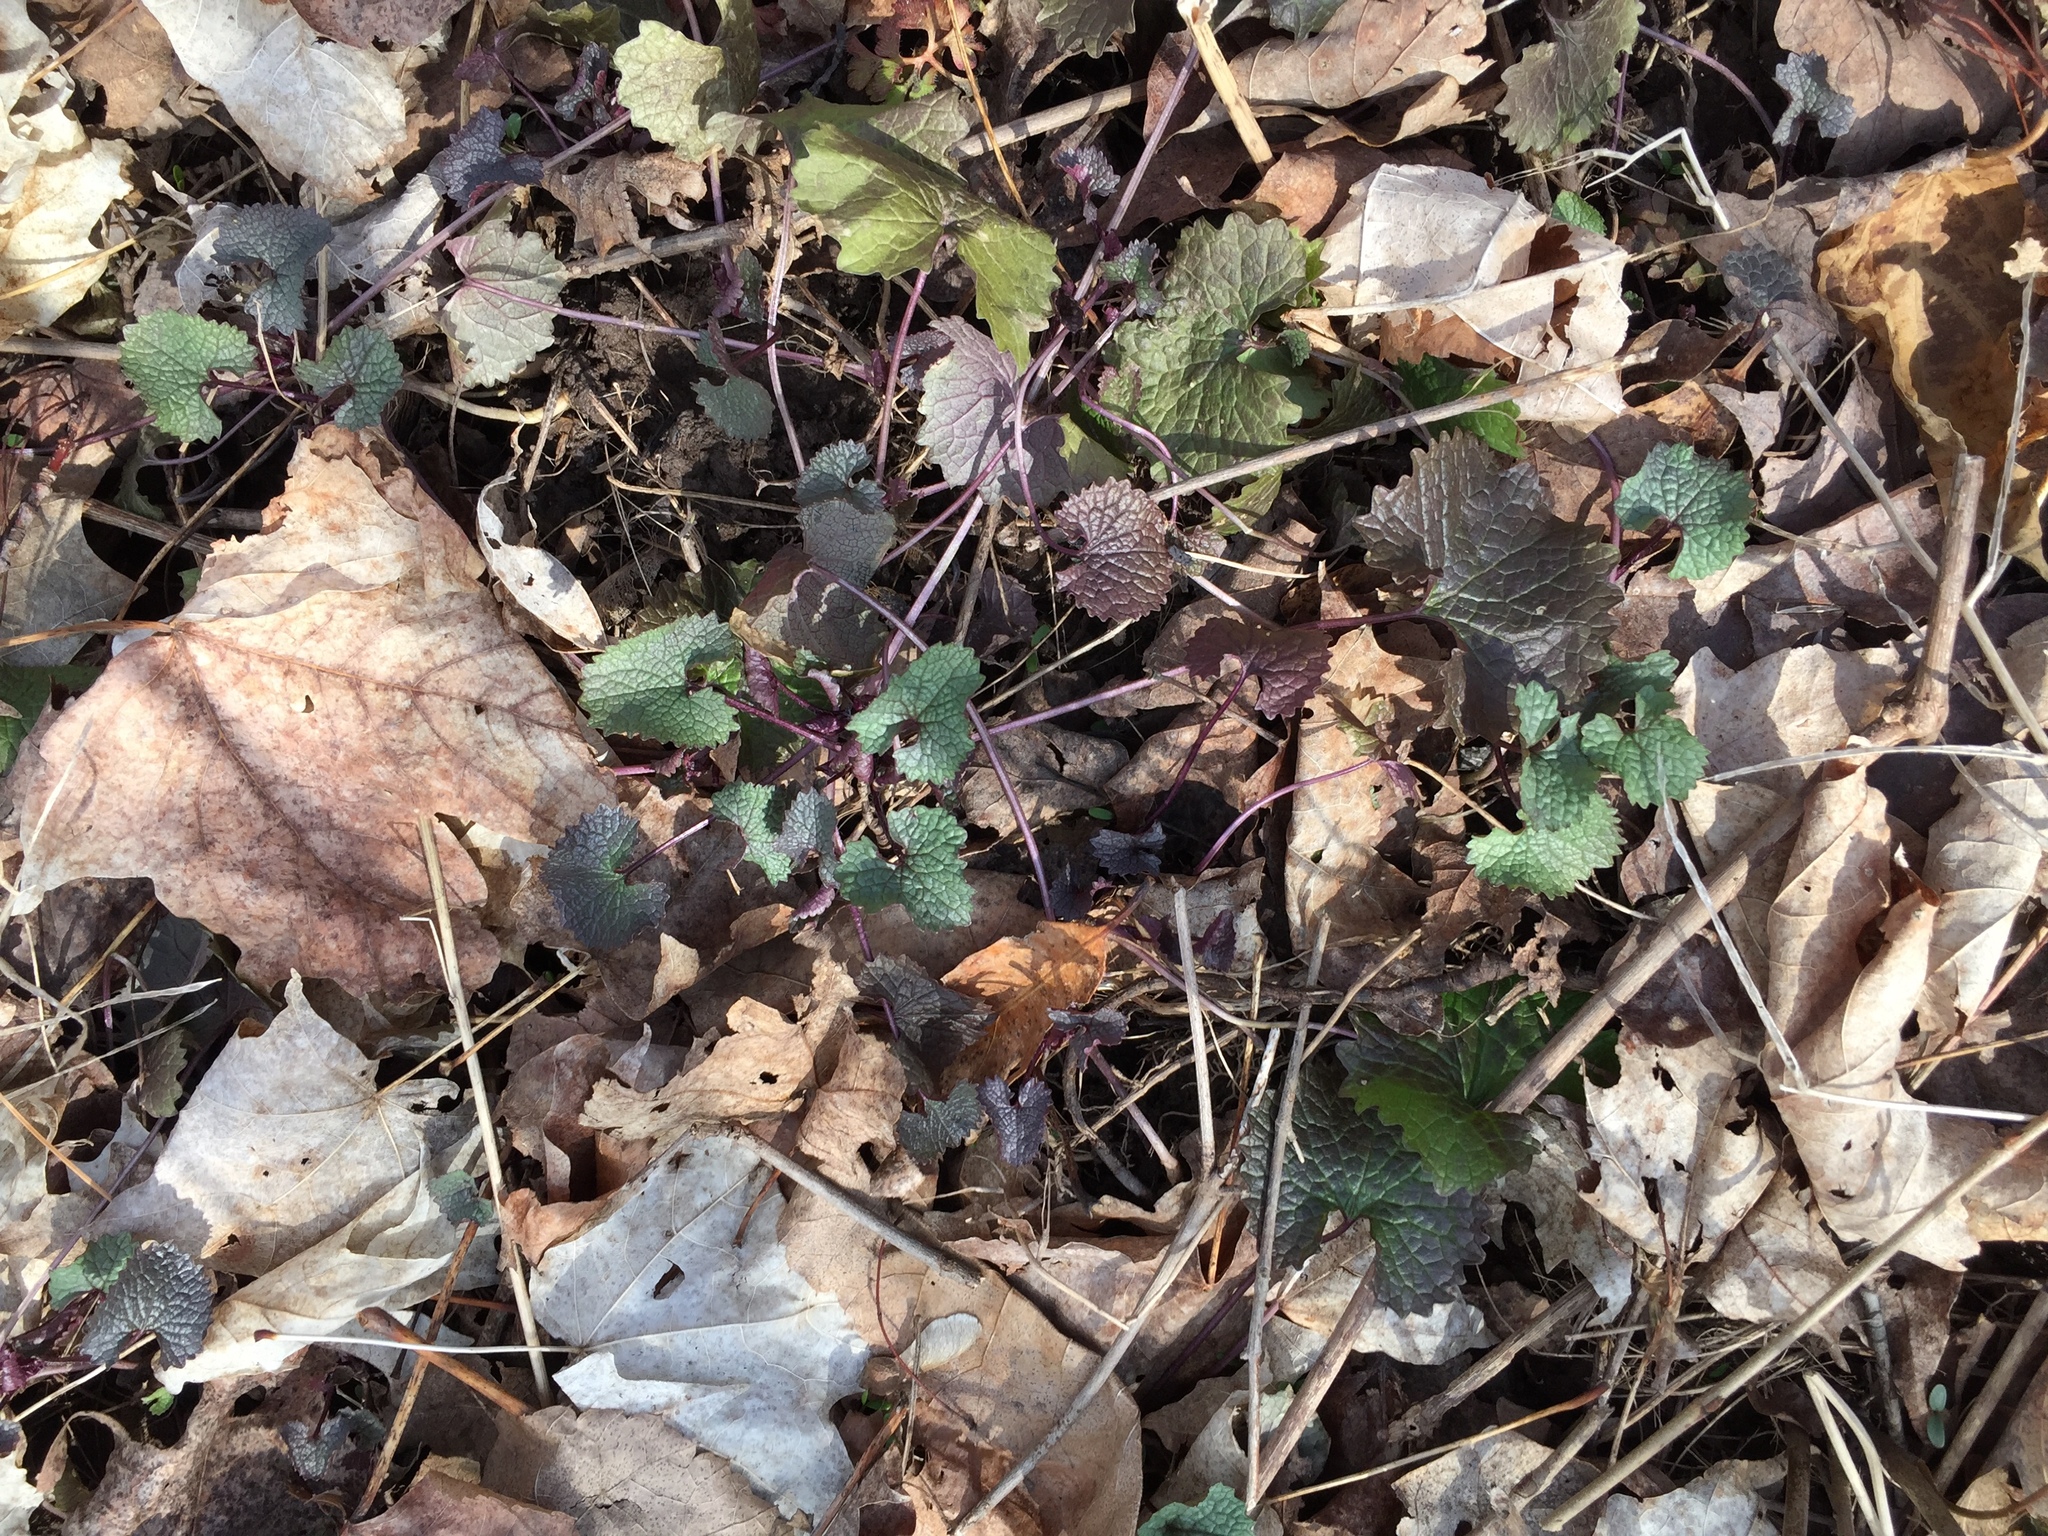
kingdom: Plantae
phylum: Tracheophyta
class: Magnoliopsida
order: Brassicales
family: Brassicaceae
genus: Alliaria
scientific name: Alliaria petiolata
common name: Garlic mustard
